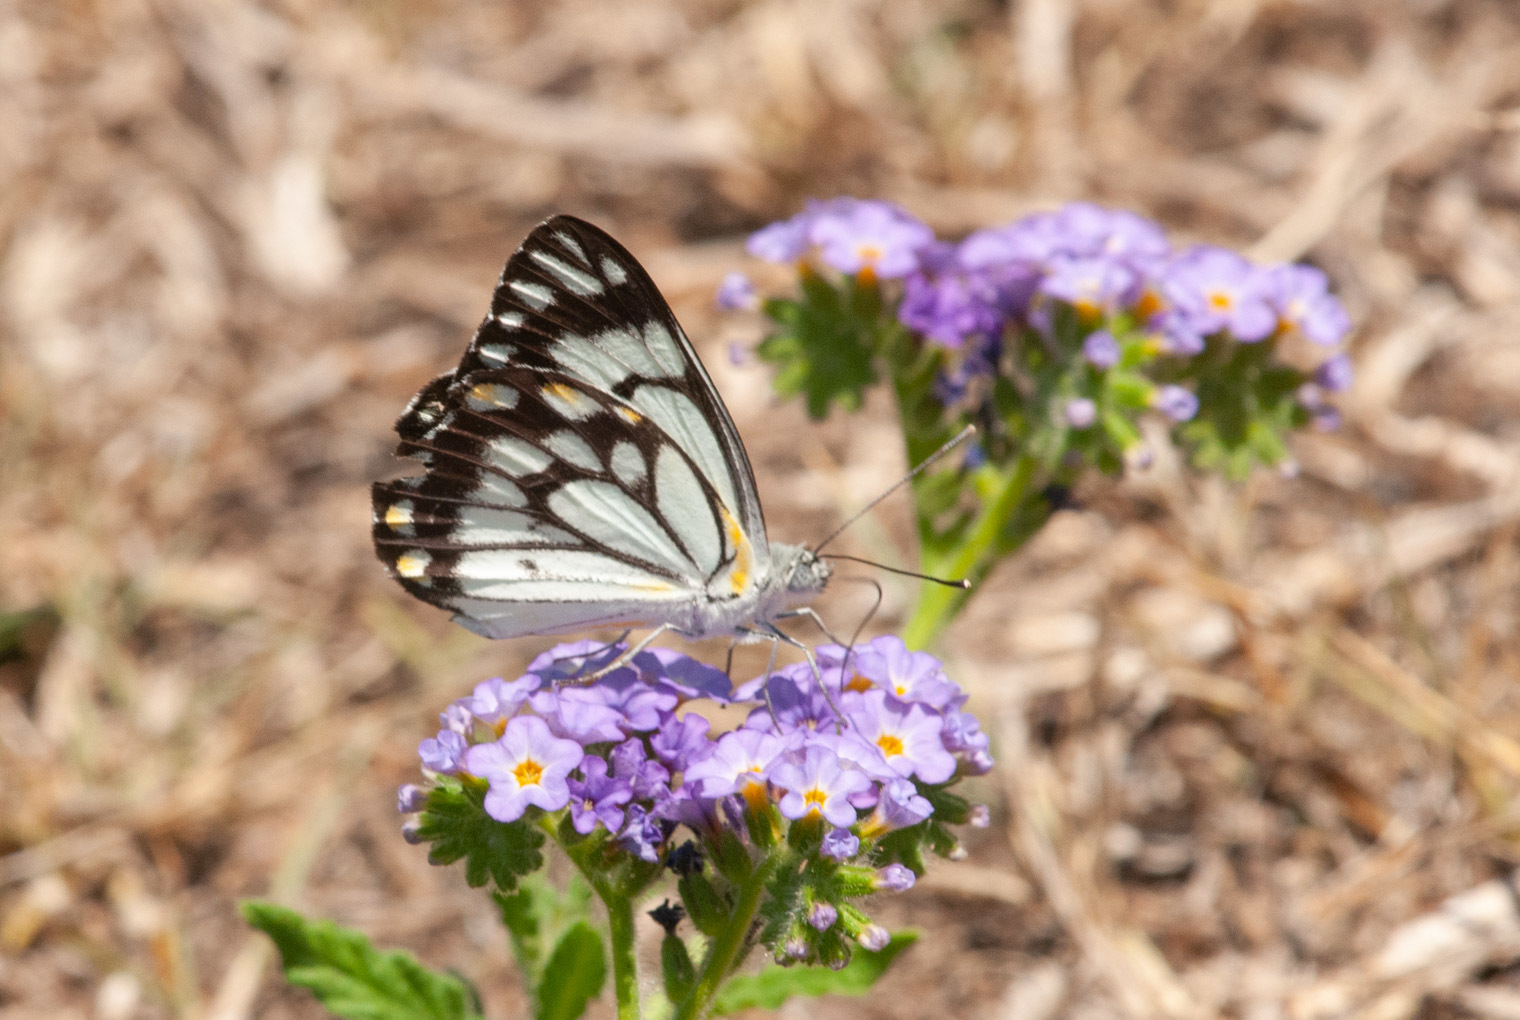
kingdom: Animalia
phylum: Arthropoda
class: Insecta
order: Lepidoptera
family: Pieridae
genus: Belenois
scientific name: Belenois java
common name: Caper white
